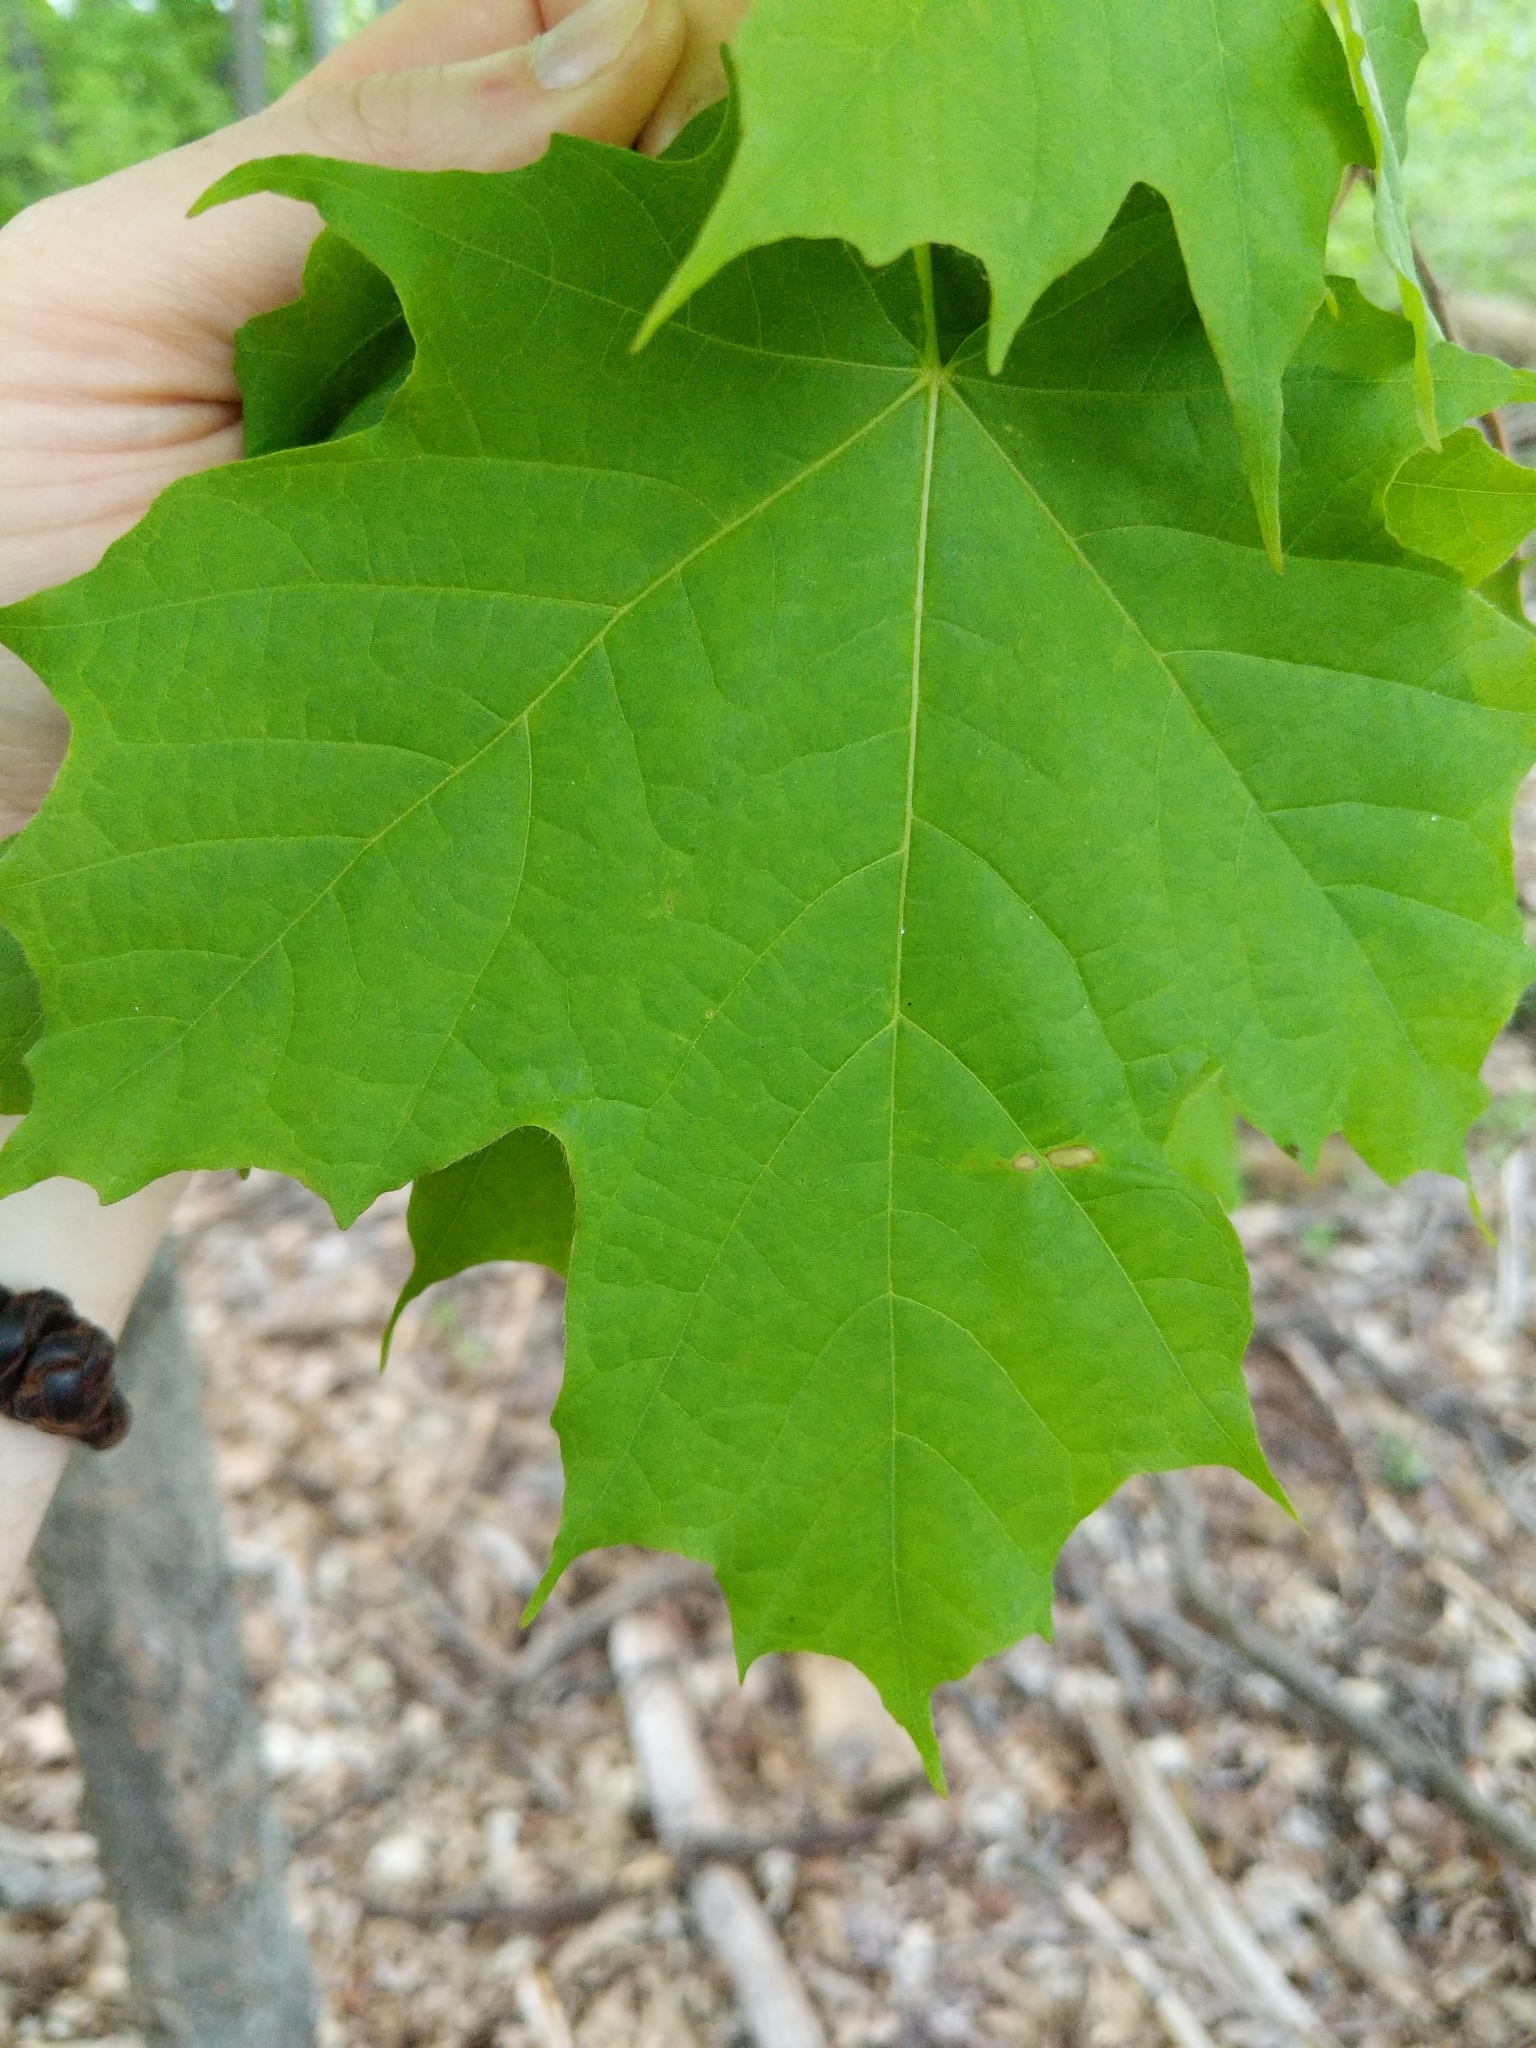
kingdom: Plantae
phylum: Tracheophyta
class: Magnoliopsida
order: Sapindales
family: Sapindaceae
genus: Acer
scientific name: Acer saccharum
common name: Sugar maple
